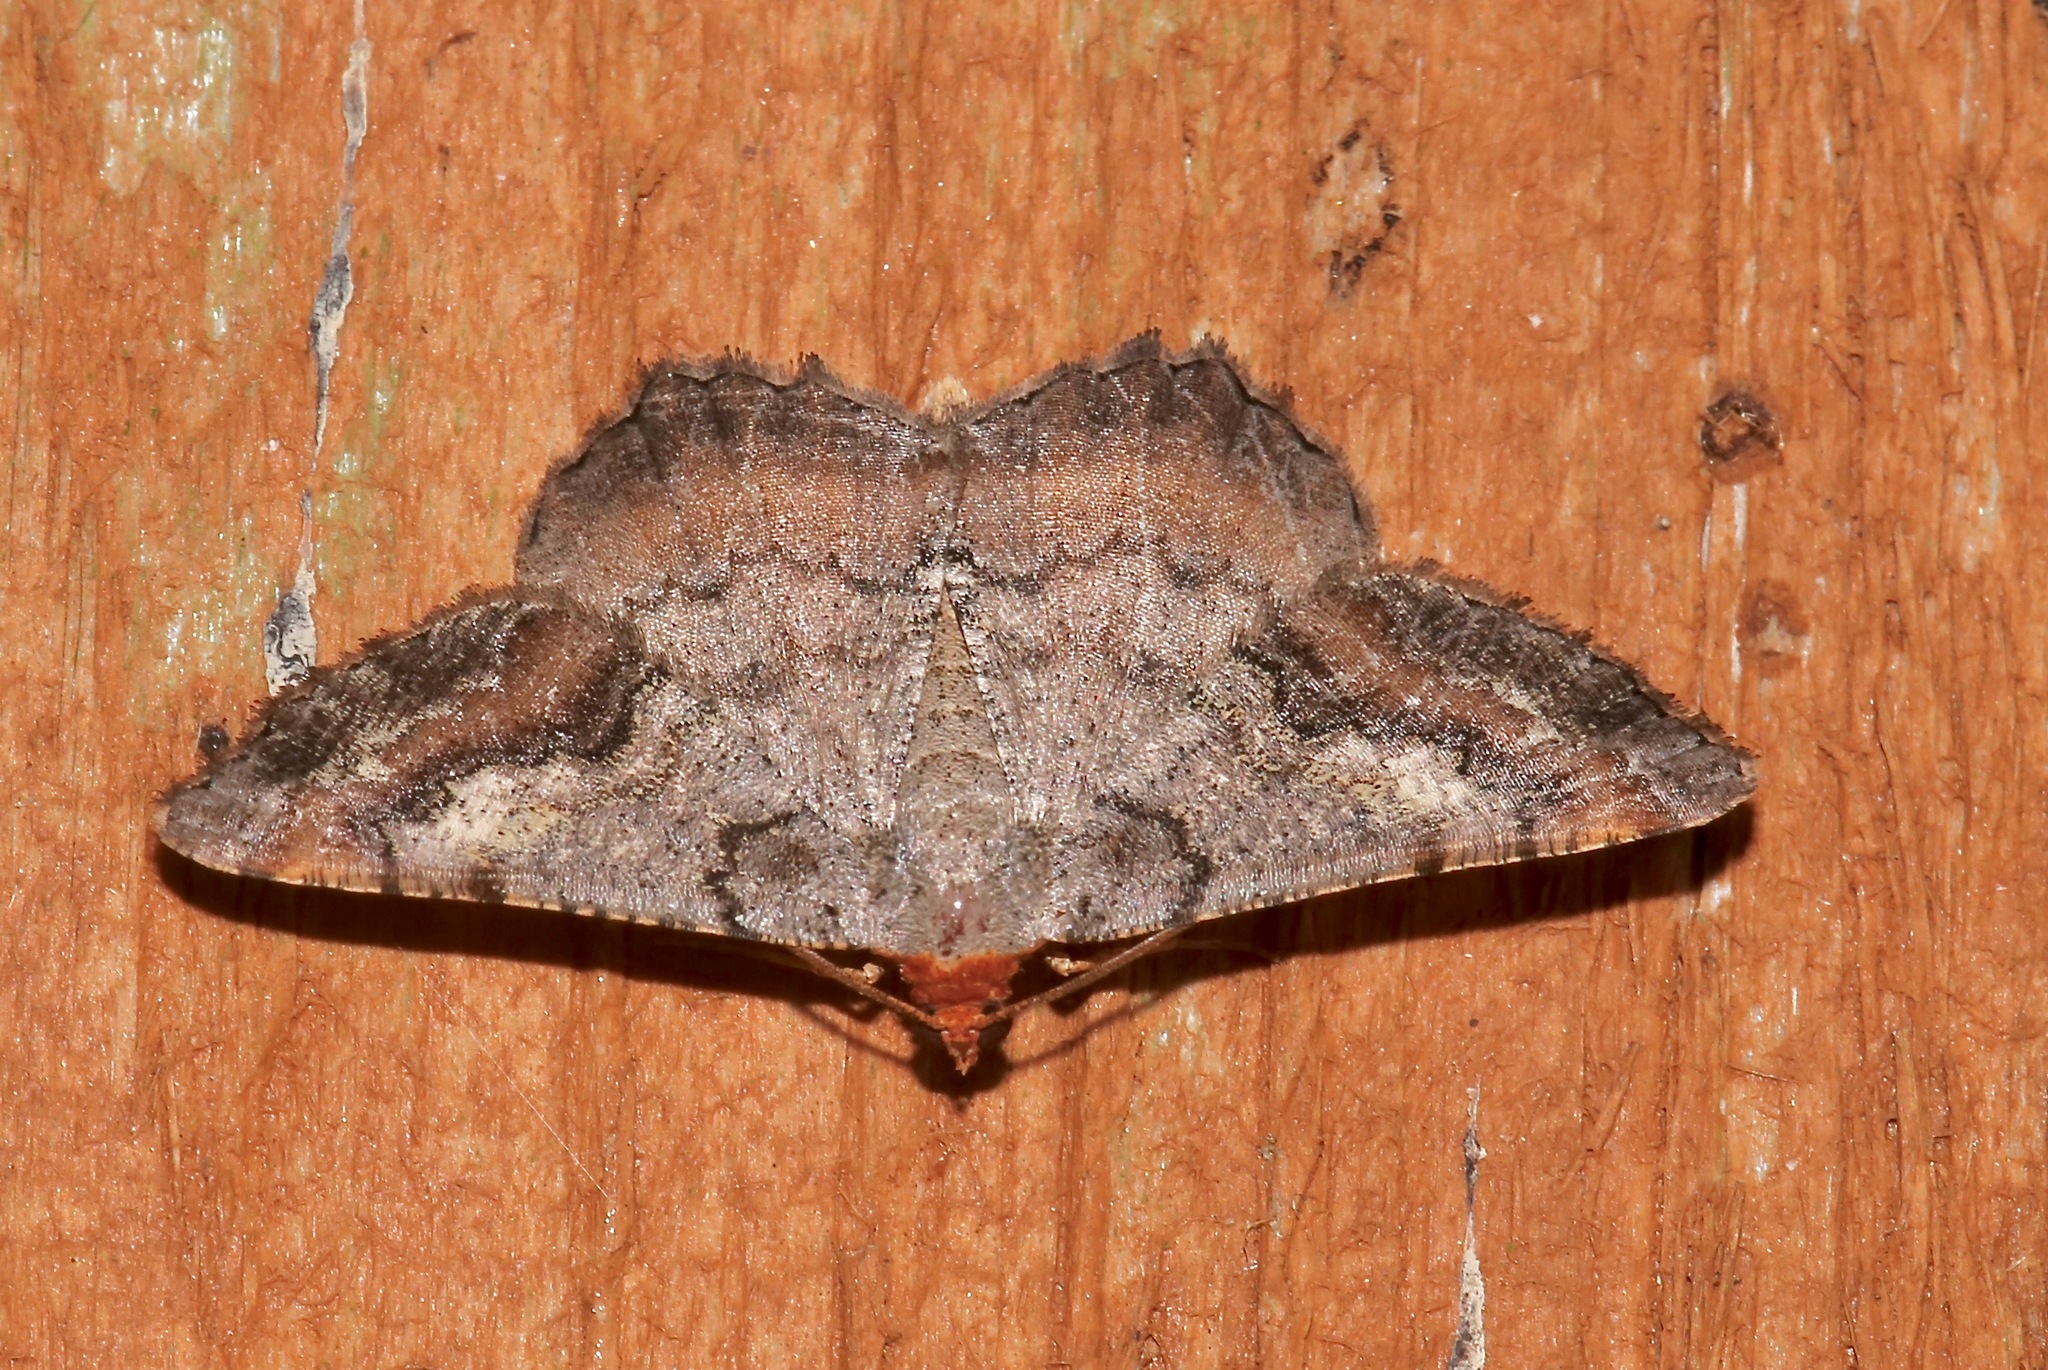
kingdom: Animalia
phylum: Arthropoda
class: Insecta
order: Lepidoptera
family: Geometridae
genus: Macaria
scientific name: Macaria distribuaria
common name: Southern chocolate angle
